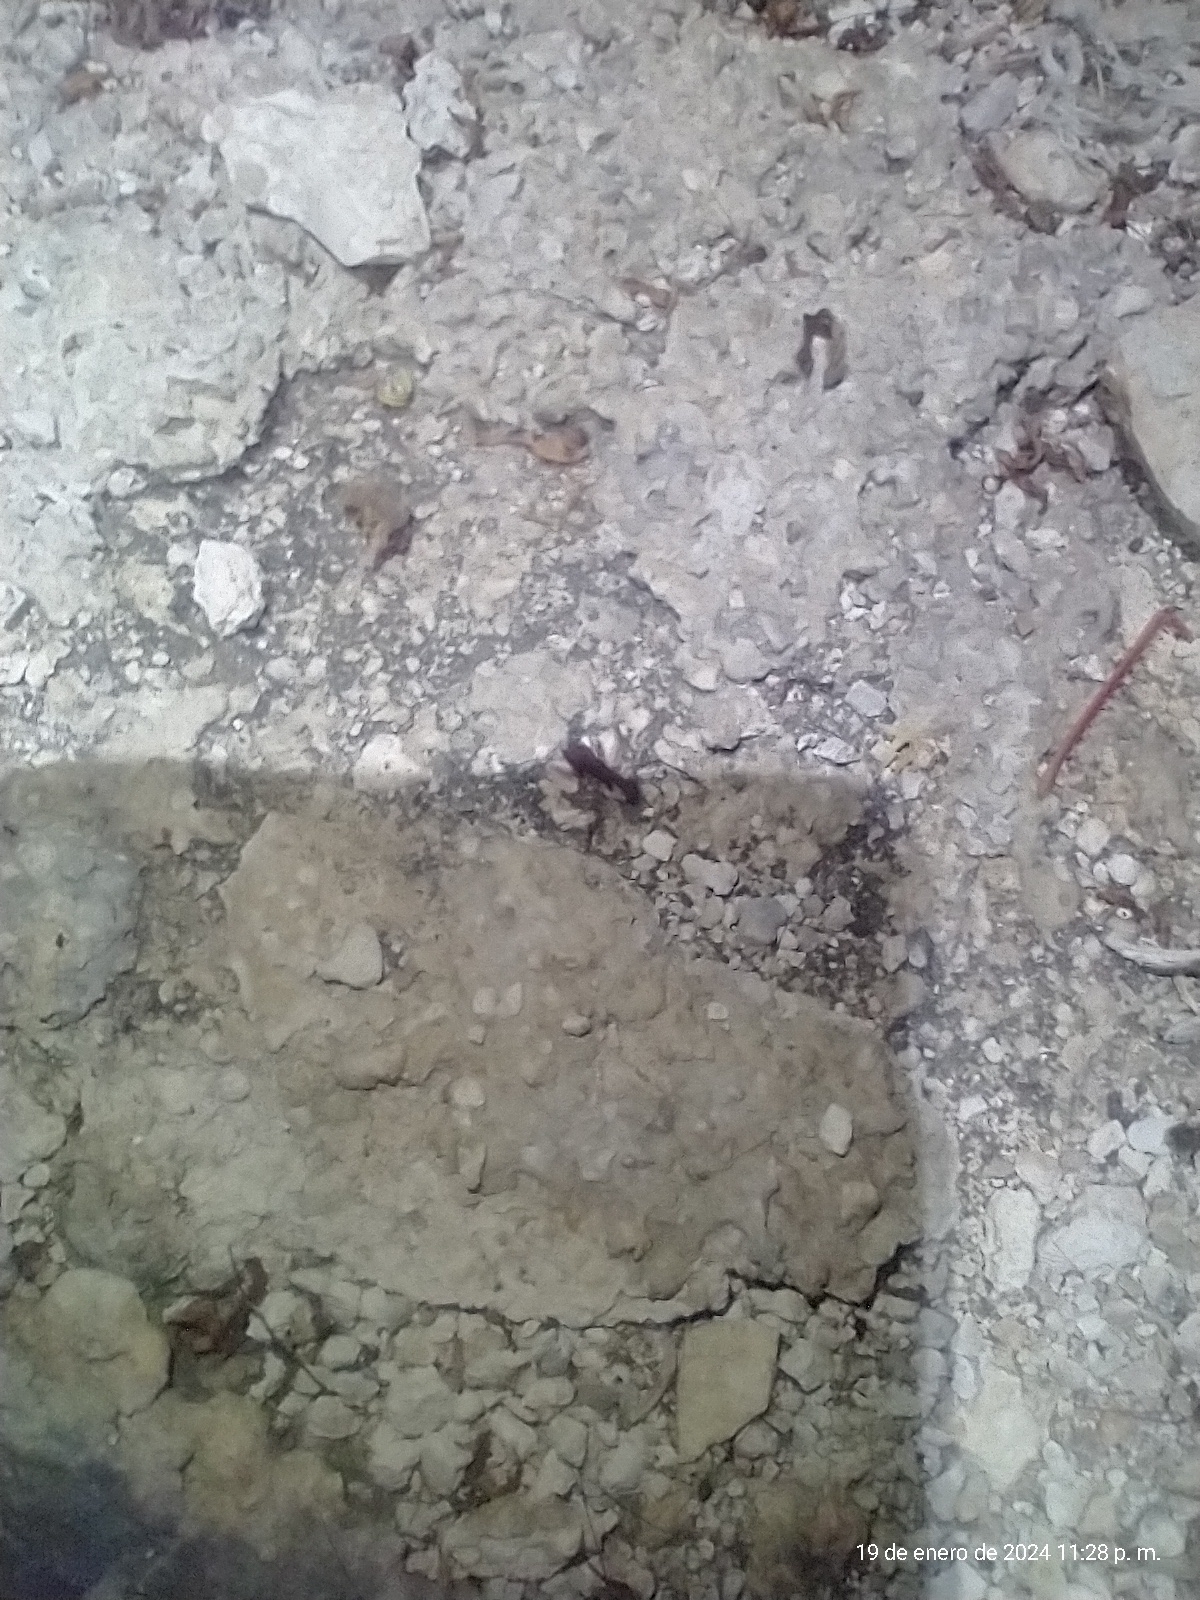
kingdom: Animalia
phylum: Arthropoda
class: Insecta
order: Hymenoptera
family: Formicidae
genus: Acromyrmex
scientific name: Acromyrmex octospinosus
